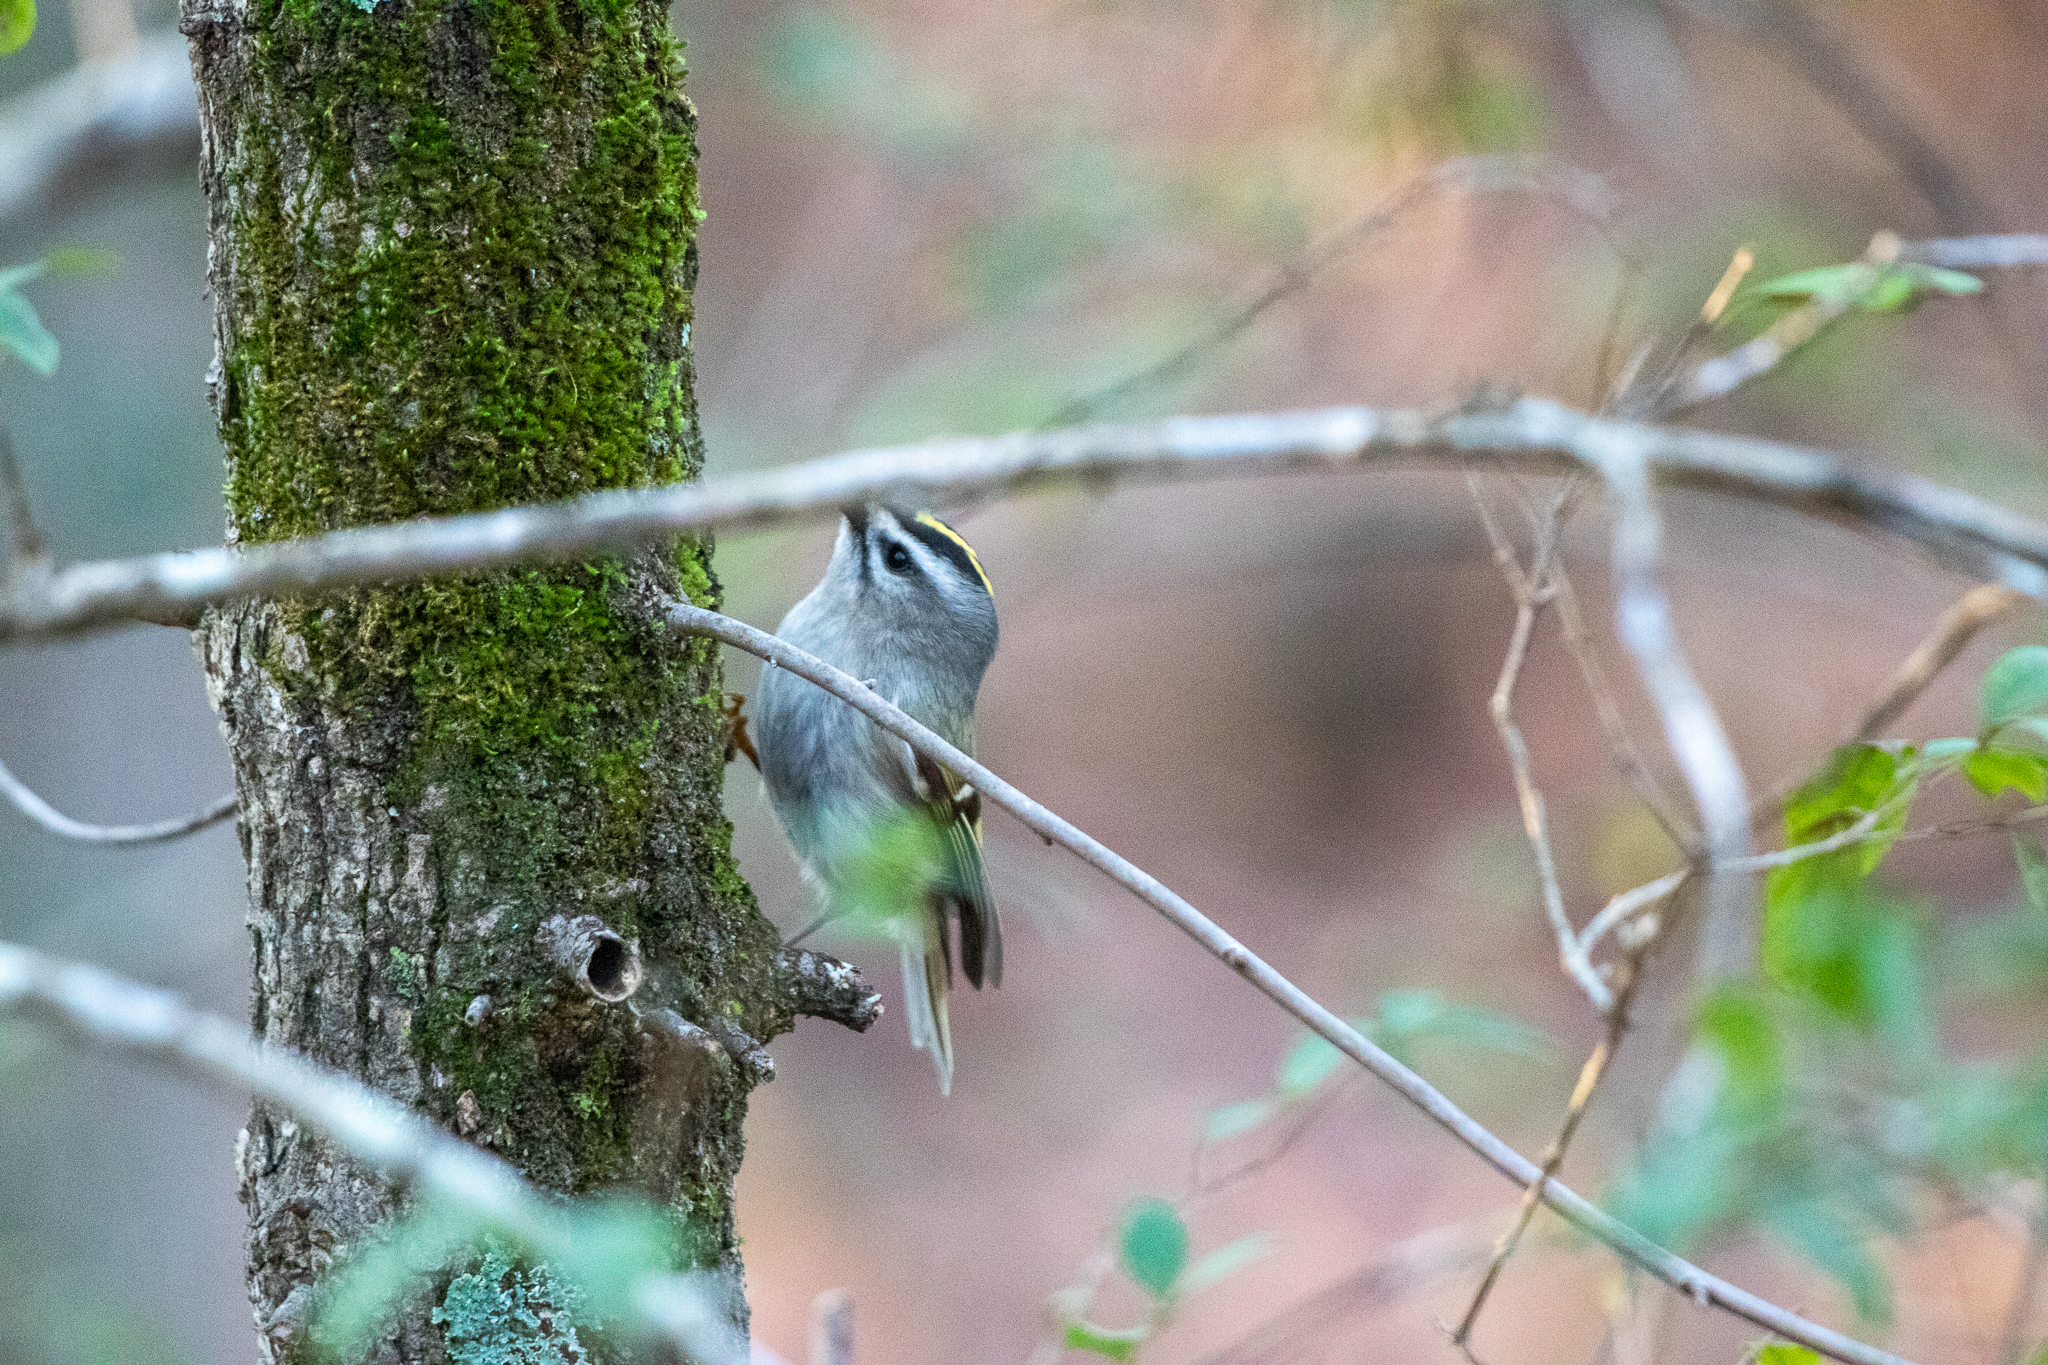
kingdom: Animalia
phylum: Chordata
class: Aves
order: Passeriformes
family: Regulidae
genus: Regulus
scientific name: Regulus satrapa
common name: Golden-crowned kinglet
